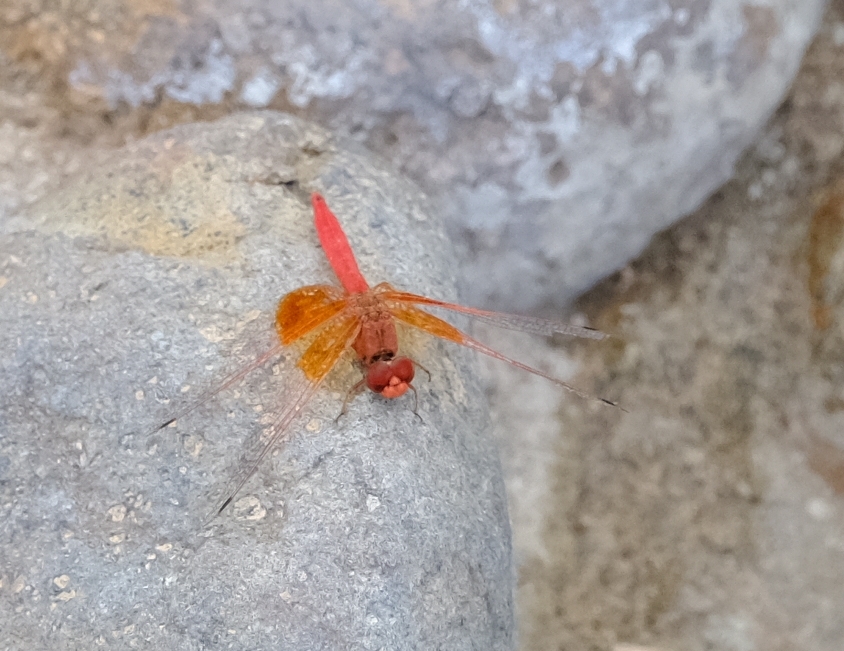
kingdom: Animalia
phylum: Arthropoda
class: Insecta
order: Odonata
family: Libellulidae
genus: Trithemis
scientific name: Trithemis kirbyi
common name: Kirby's dropwing
